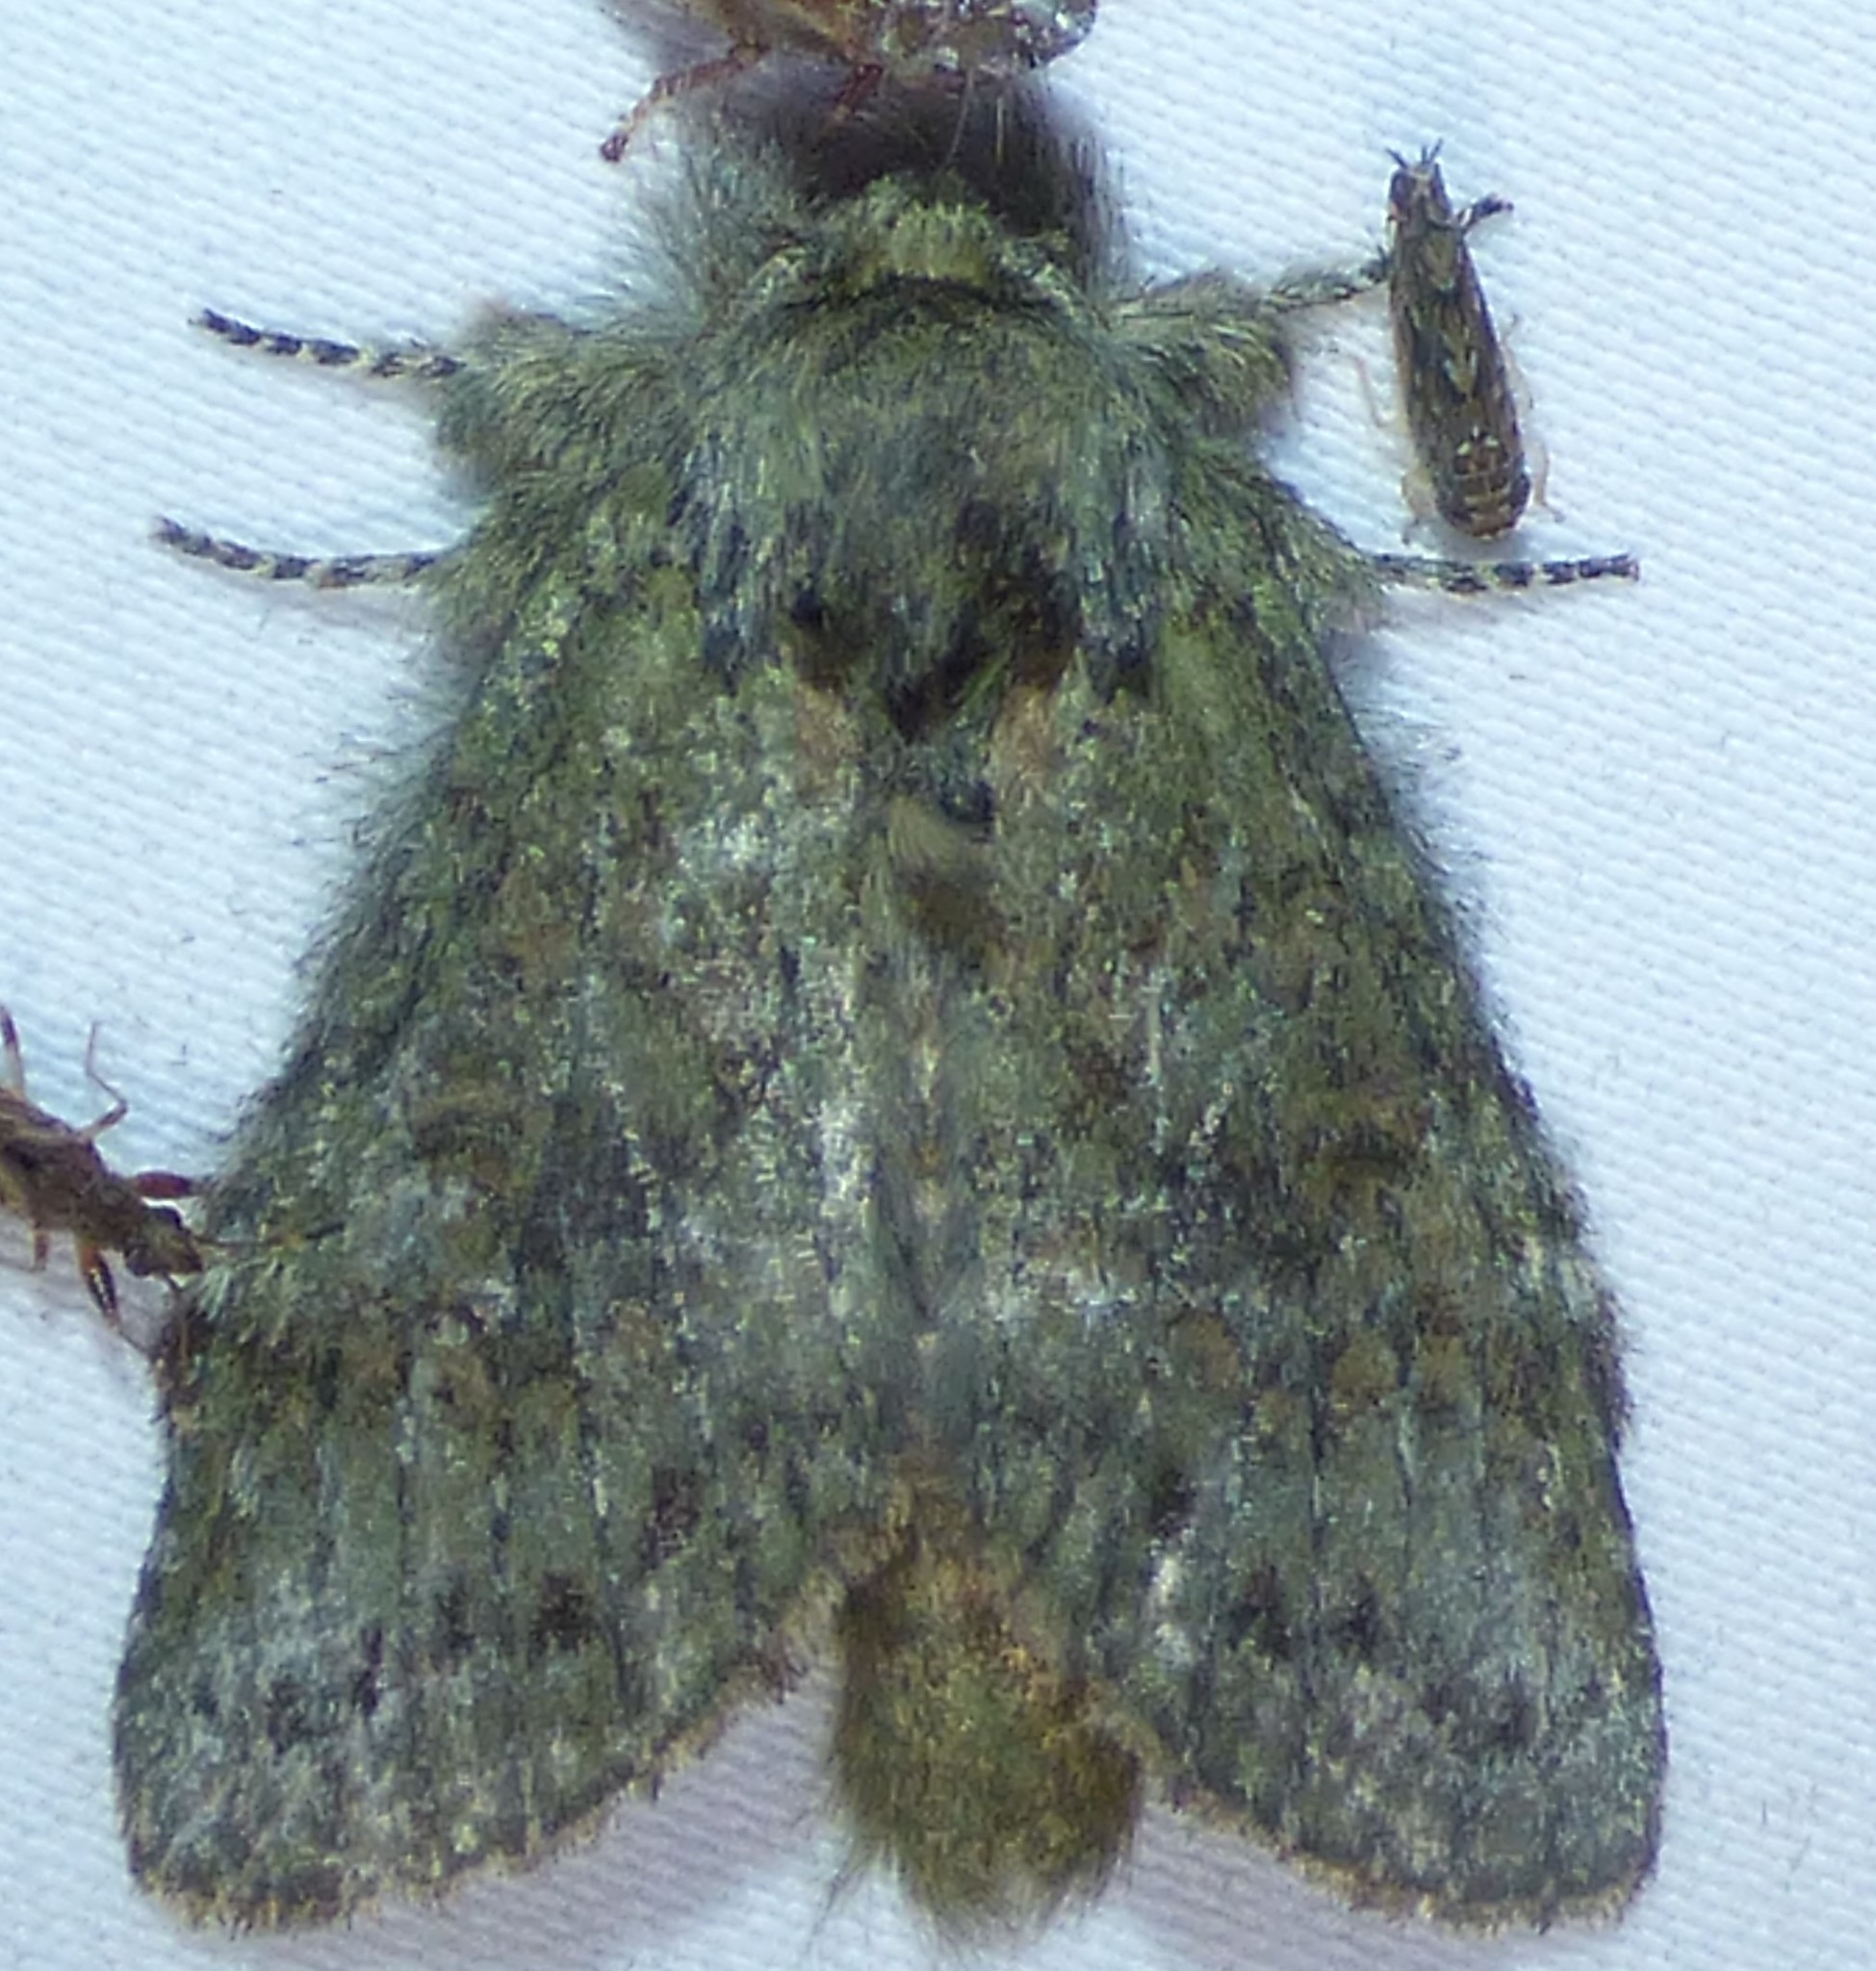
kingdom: Animalia
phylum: Arthropoda
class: Insecta
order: Lepidoptera
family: Notodontidae
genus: Disphragis
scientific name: Disphragis Cecrita biundata
